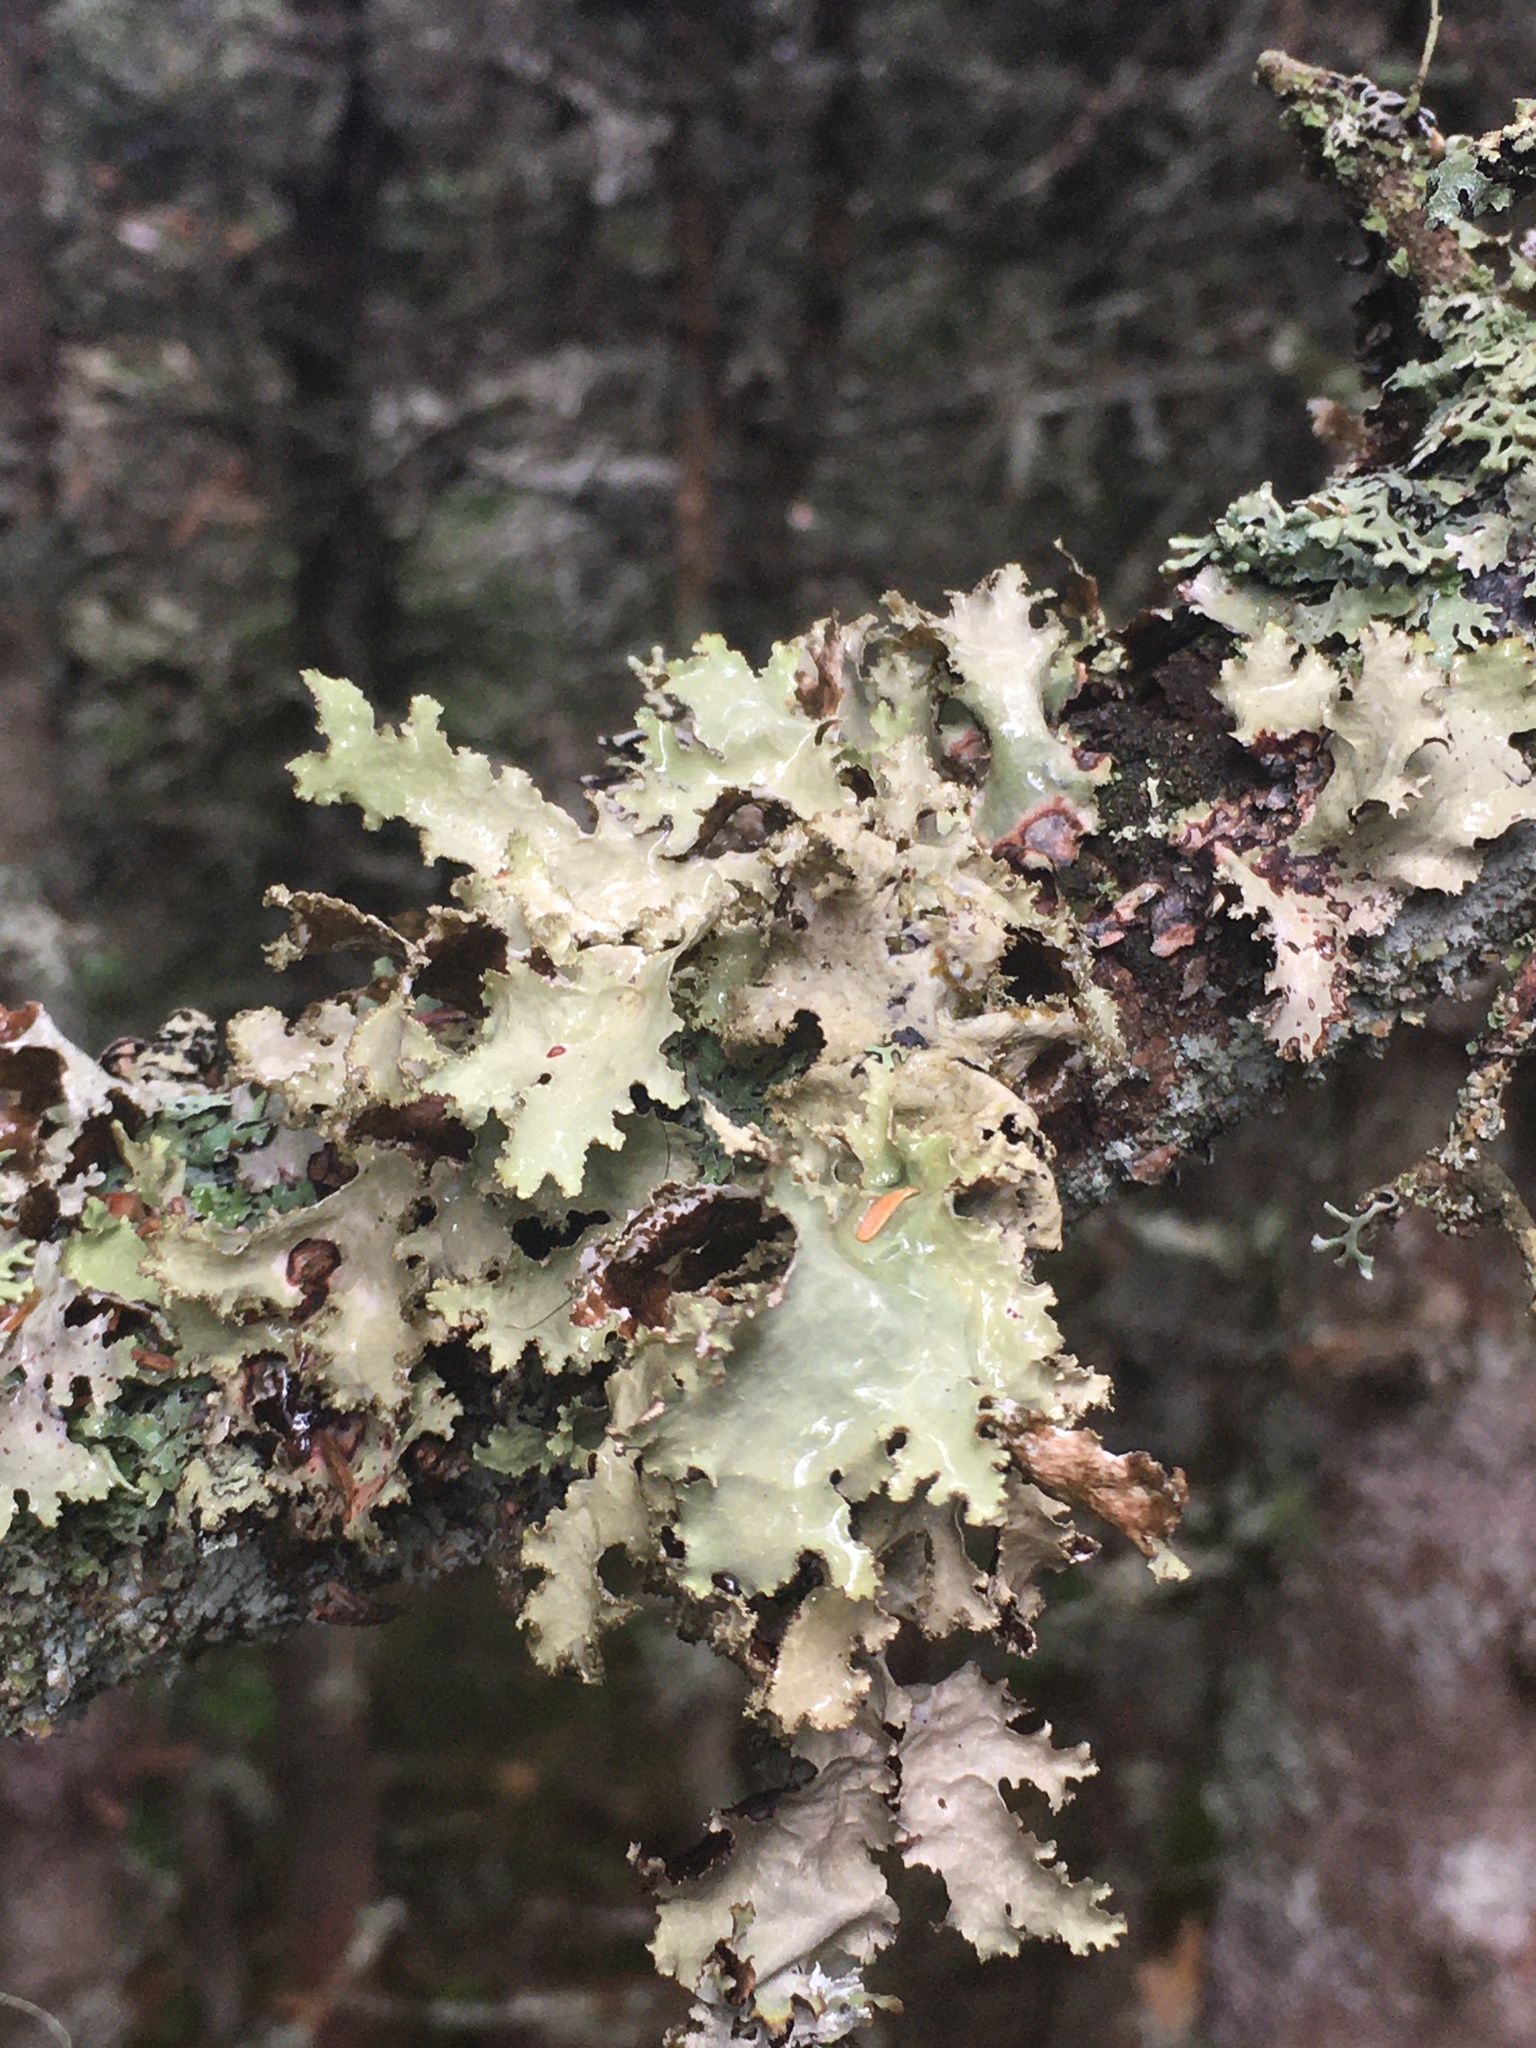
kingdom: Fungi
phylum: Ascomycota
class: Lecanoromycetes
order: Lecanorales
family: Parmeliaceae
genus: Platismatia
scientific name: Platismatia glauca
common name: Varied rag lichen
